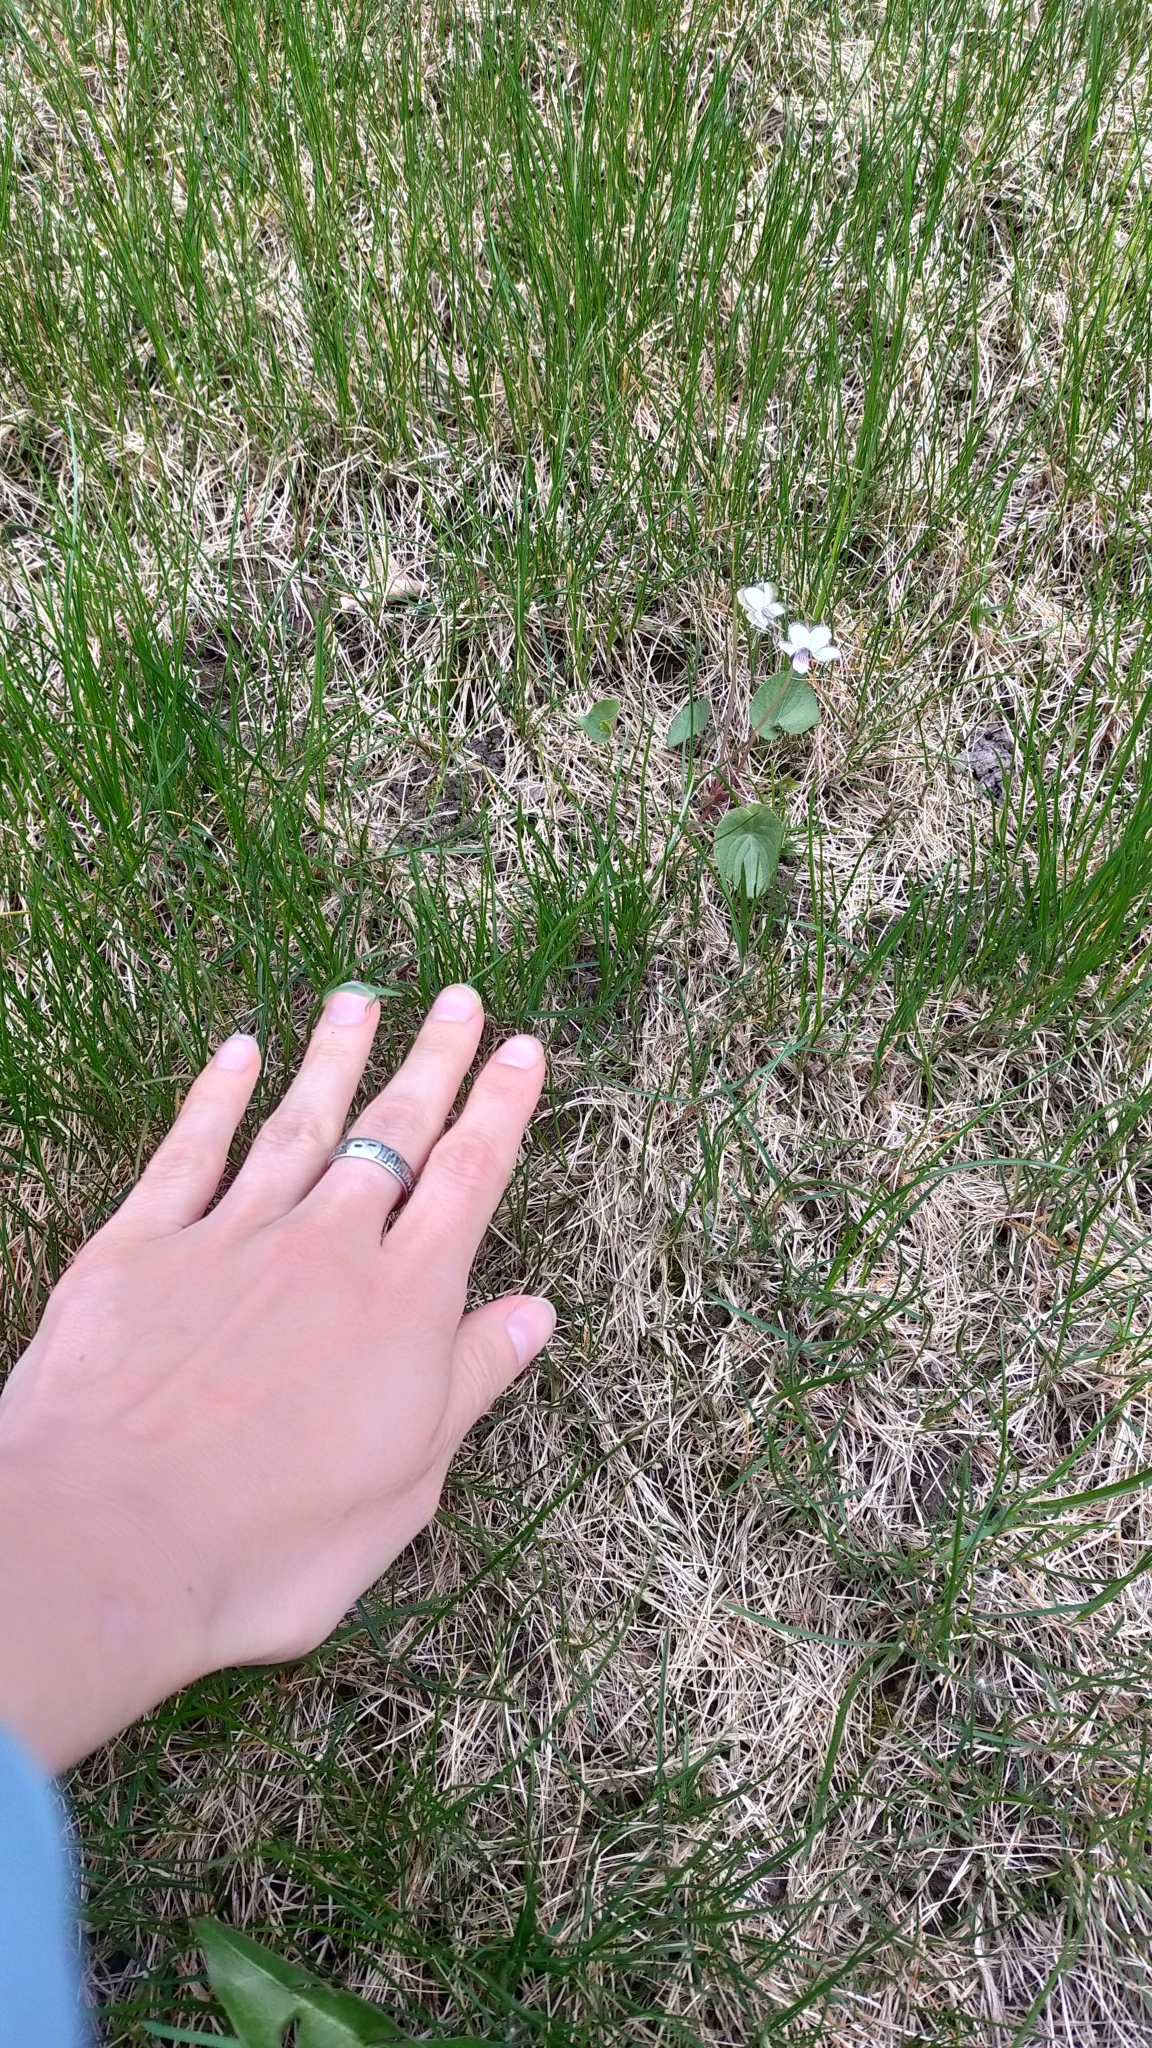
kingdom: Plantae
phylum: Tracheophyta
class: Magnoliopsida
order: Malpighiales
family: Violaceae
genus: Viola
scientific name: Viola amurica
